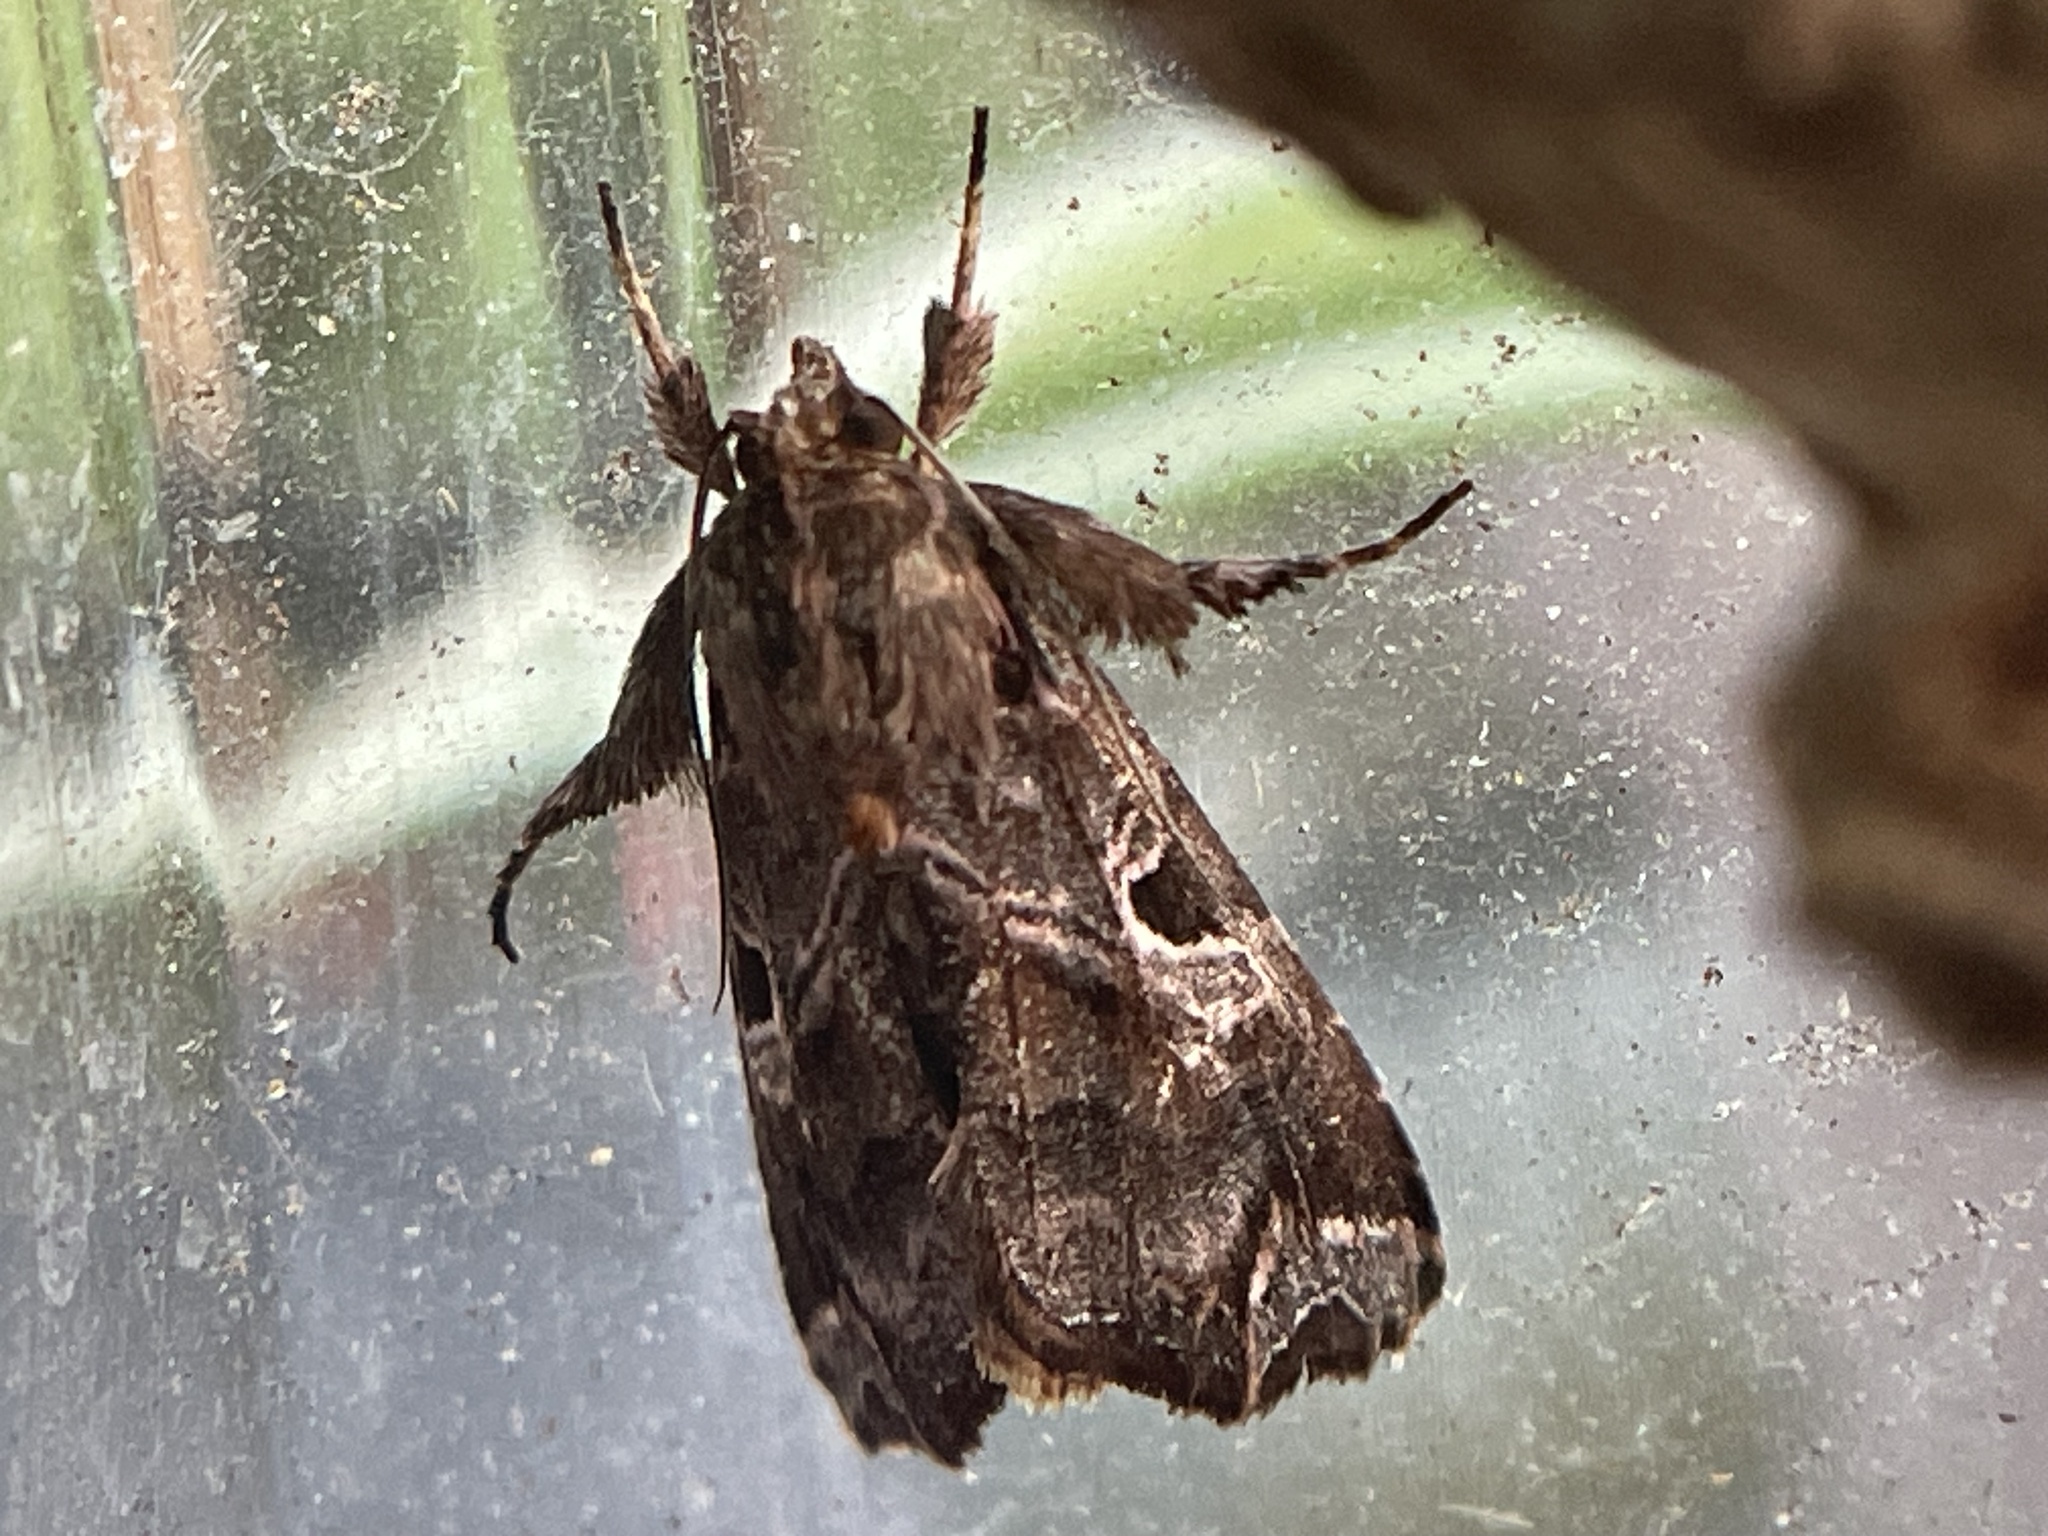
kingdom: Animalia
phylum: Arthropoda
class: Insecta
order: Lepidoptera
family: Noctuidae
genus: Callopistria
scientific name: Callopistria floridensis
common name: Florida fern moth
